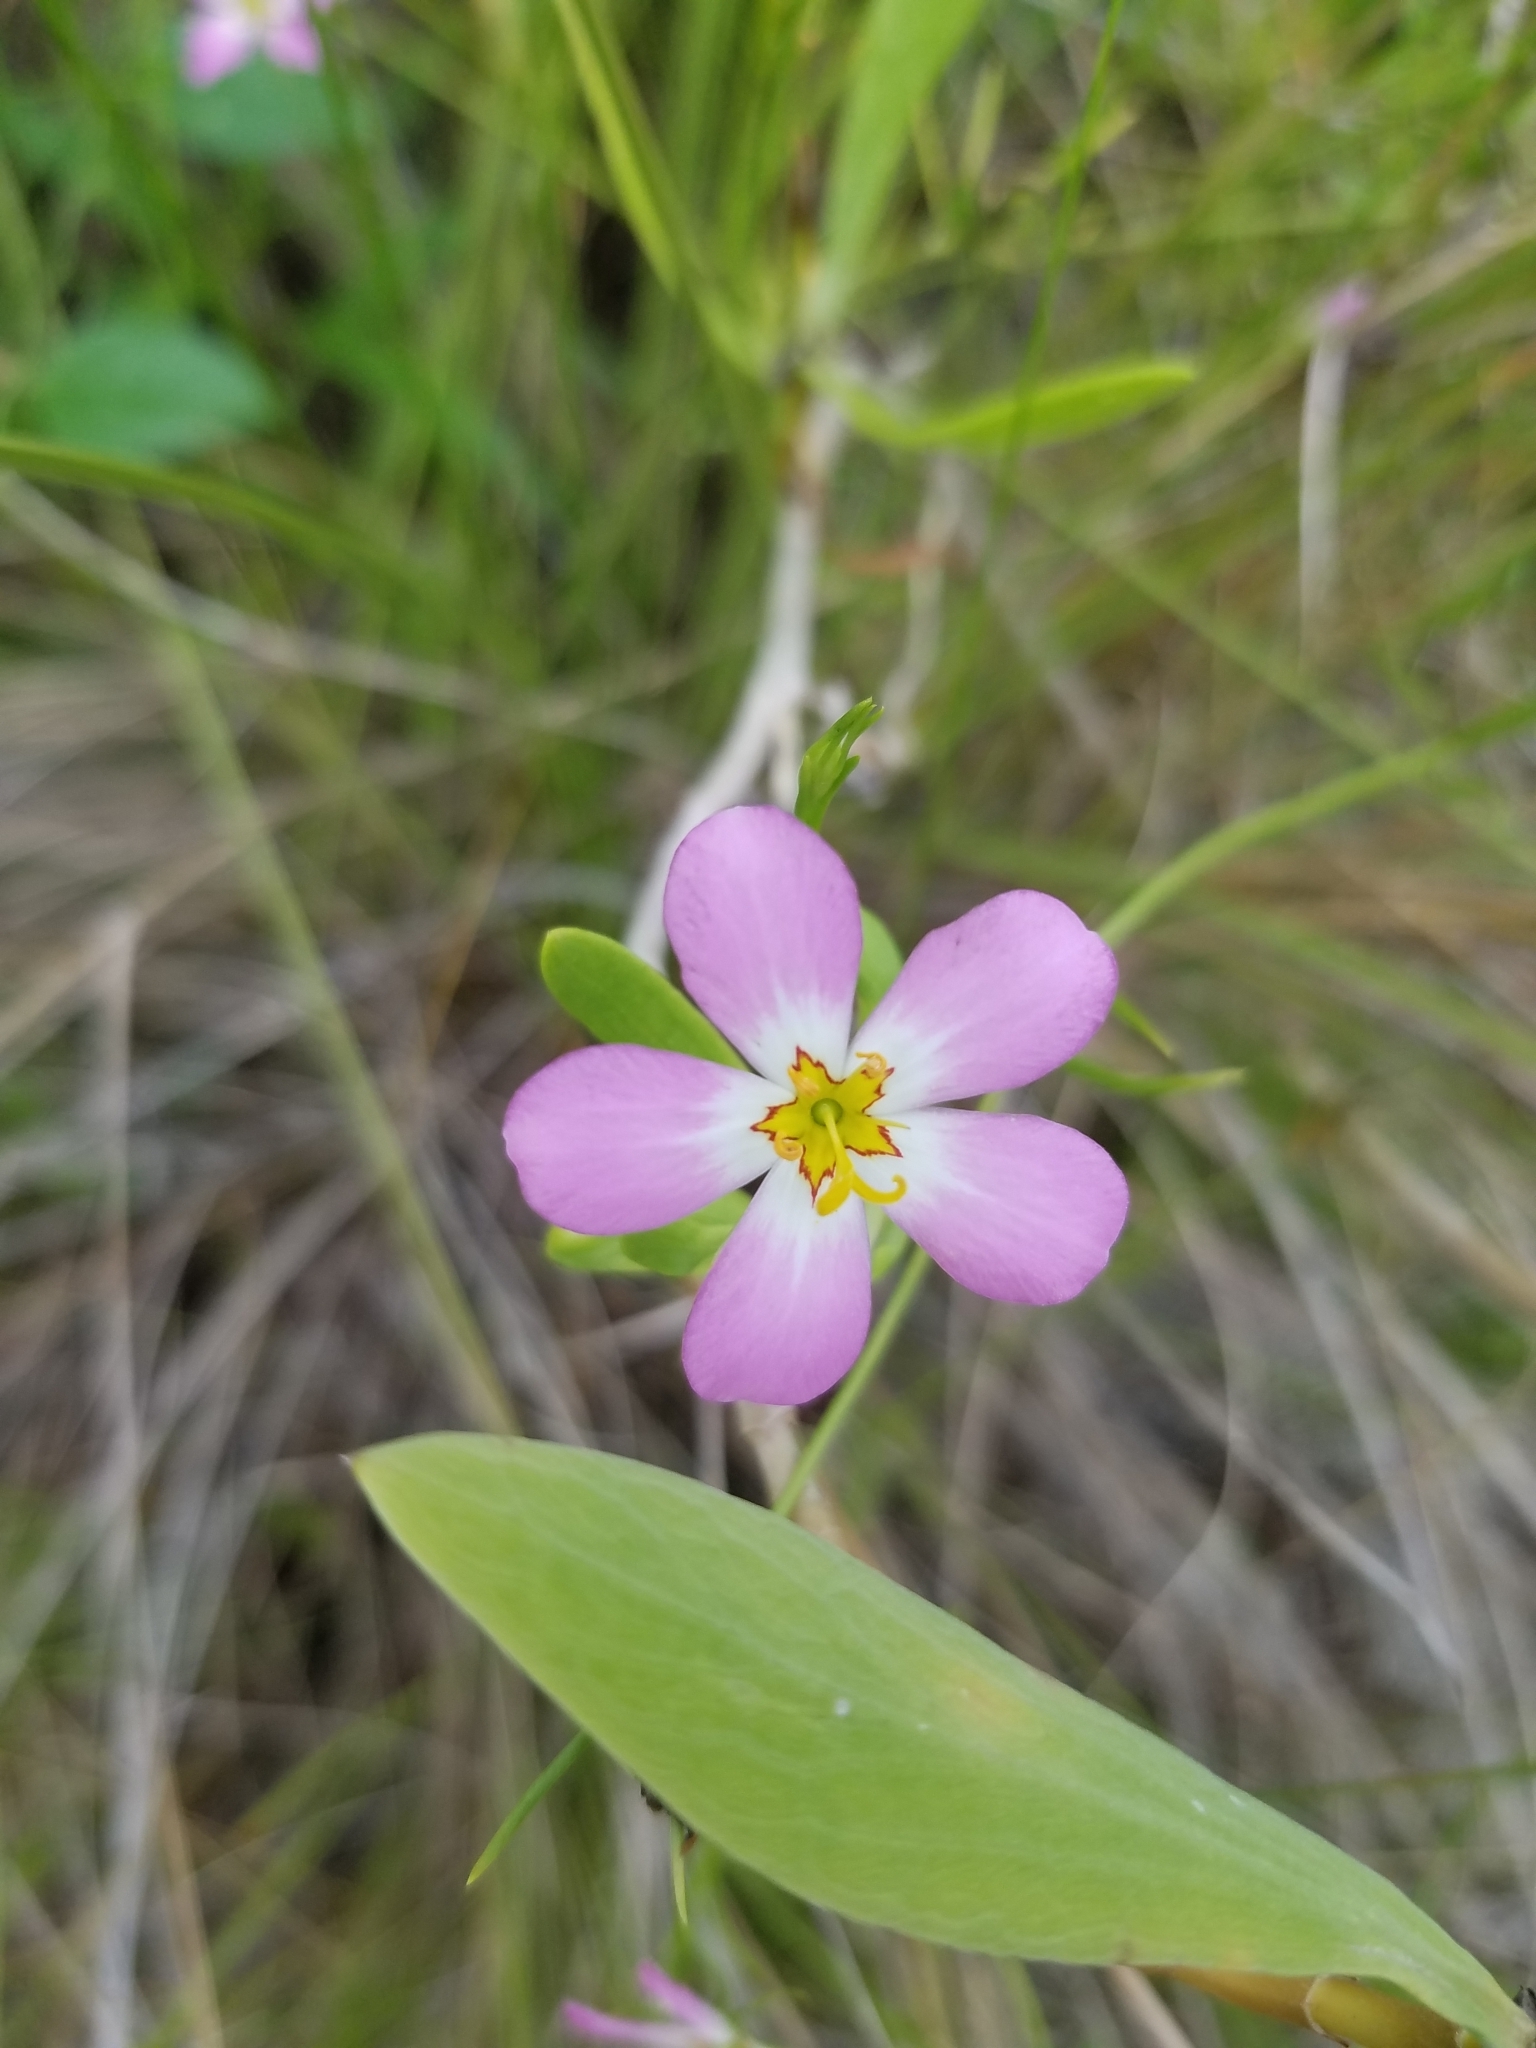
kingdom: Plantae
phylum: Tracheophyta
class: Magnoliopsida
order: Gentianales
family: Gentianaceae
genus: Sabatia
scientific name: Sabatia stellaris
